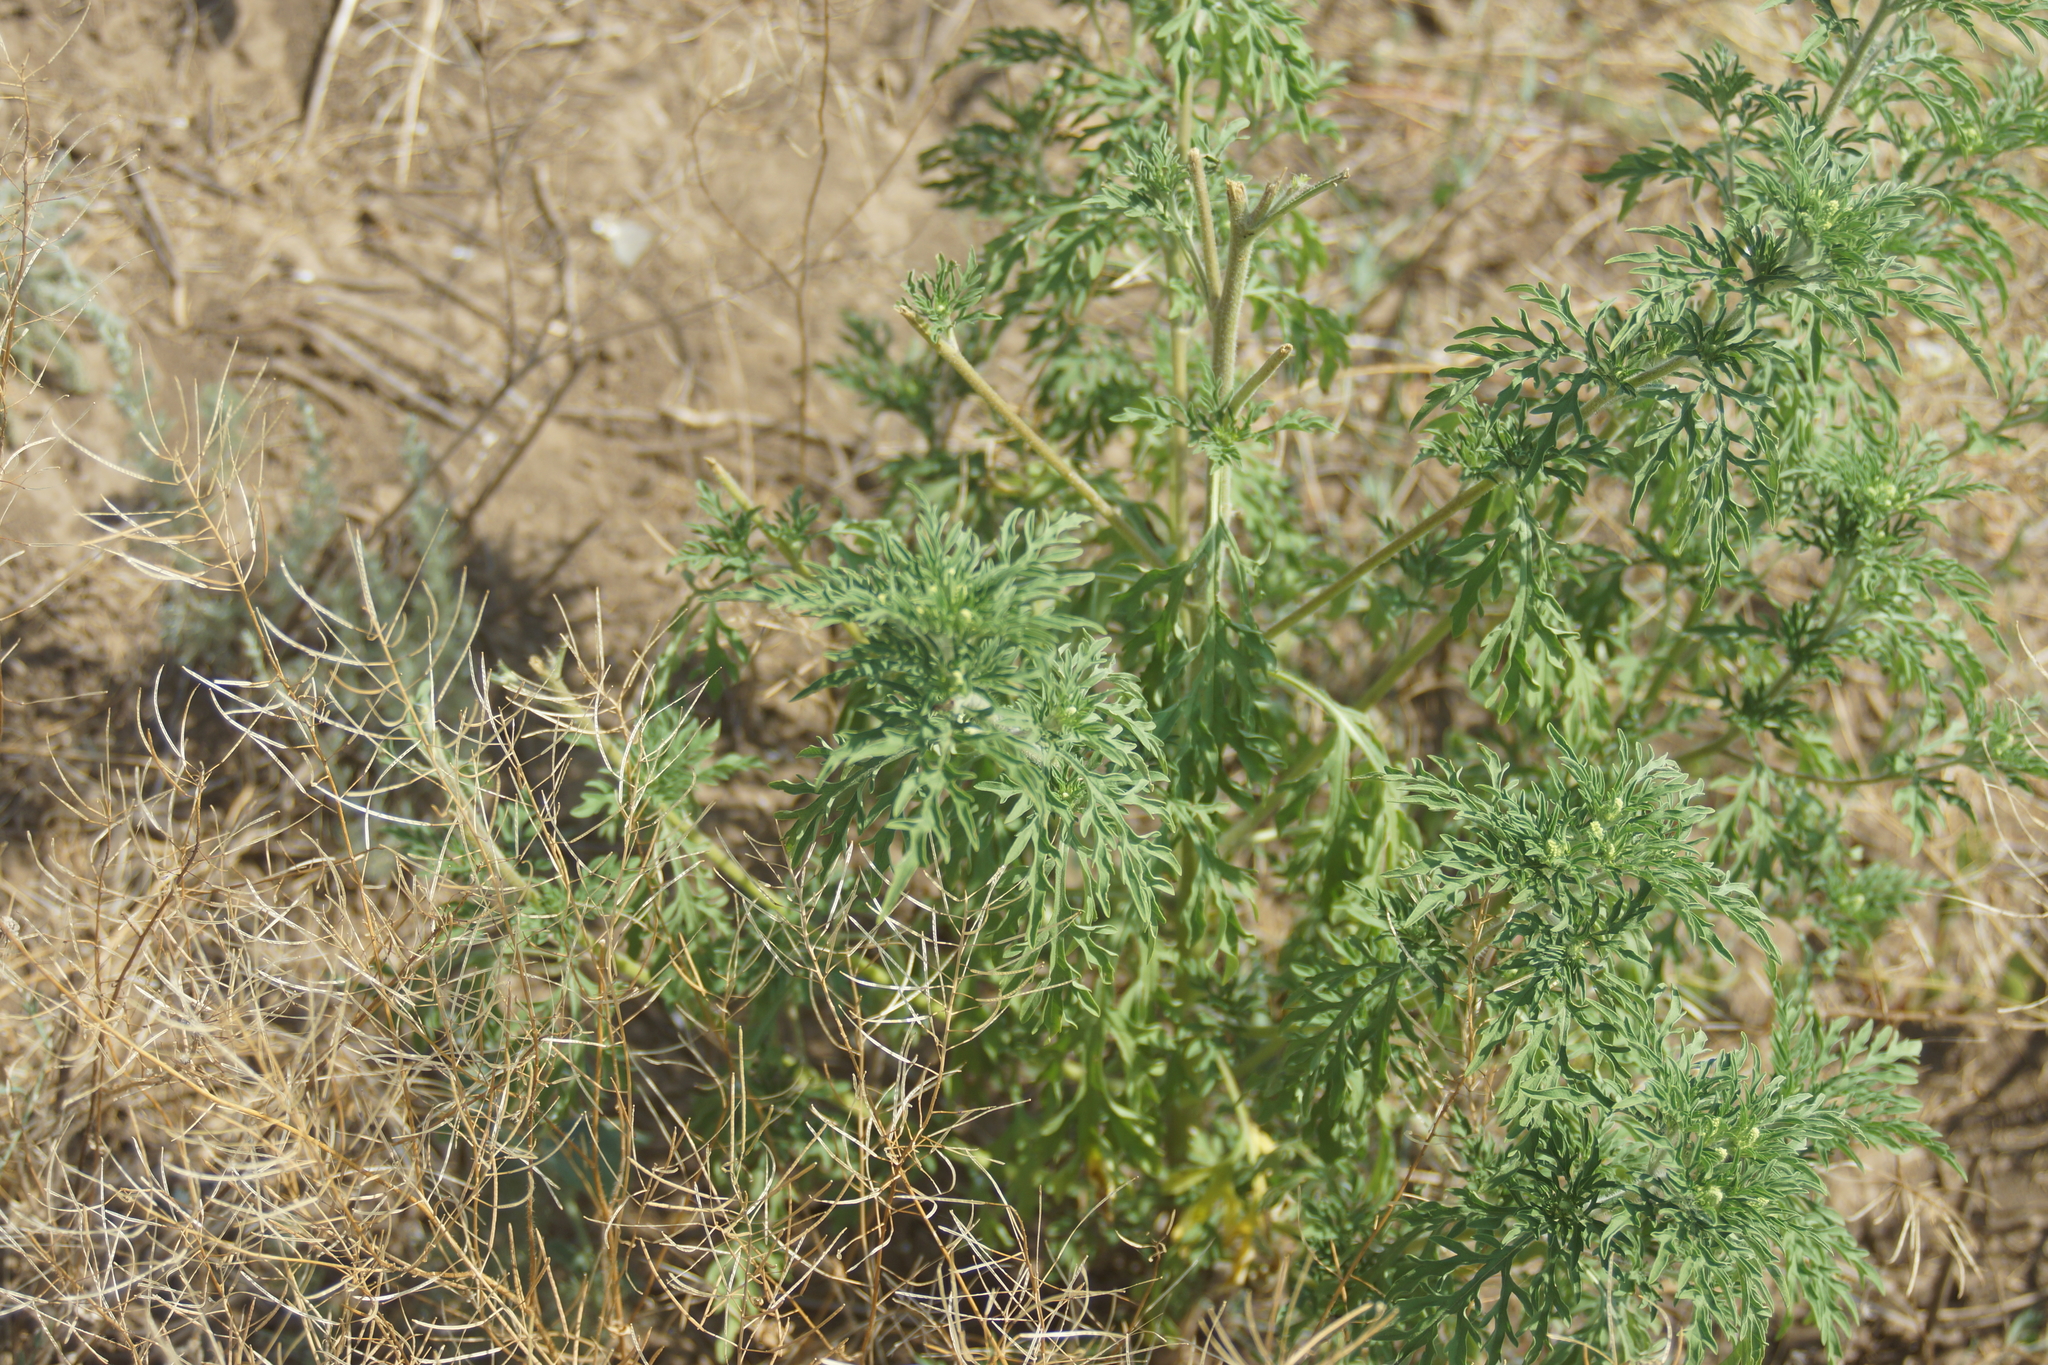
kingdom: Plantae
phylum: Tracheophyta
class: Magnoliopsida
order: Asterales
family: Asteraceae
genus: Ambrosia
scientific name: Ambrosia artemisiifolia
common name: Annual ragweed
